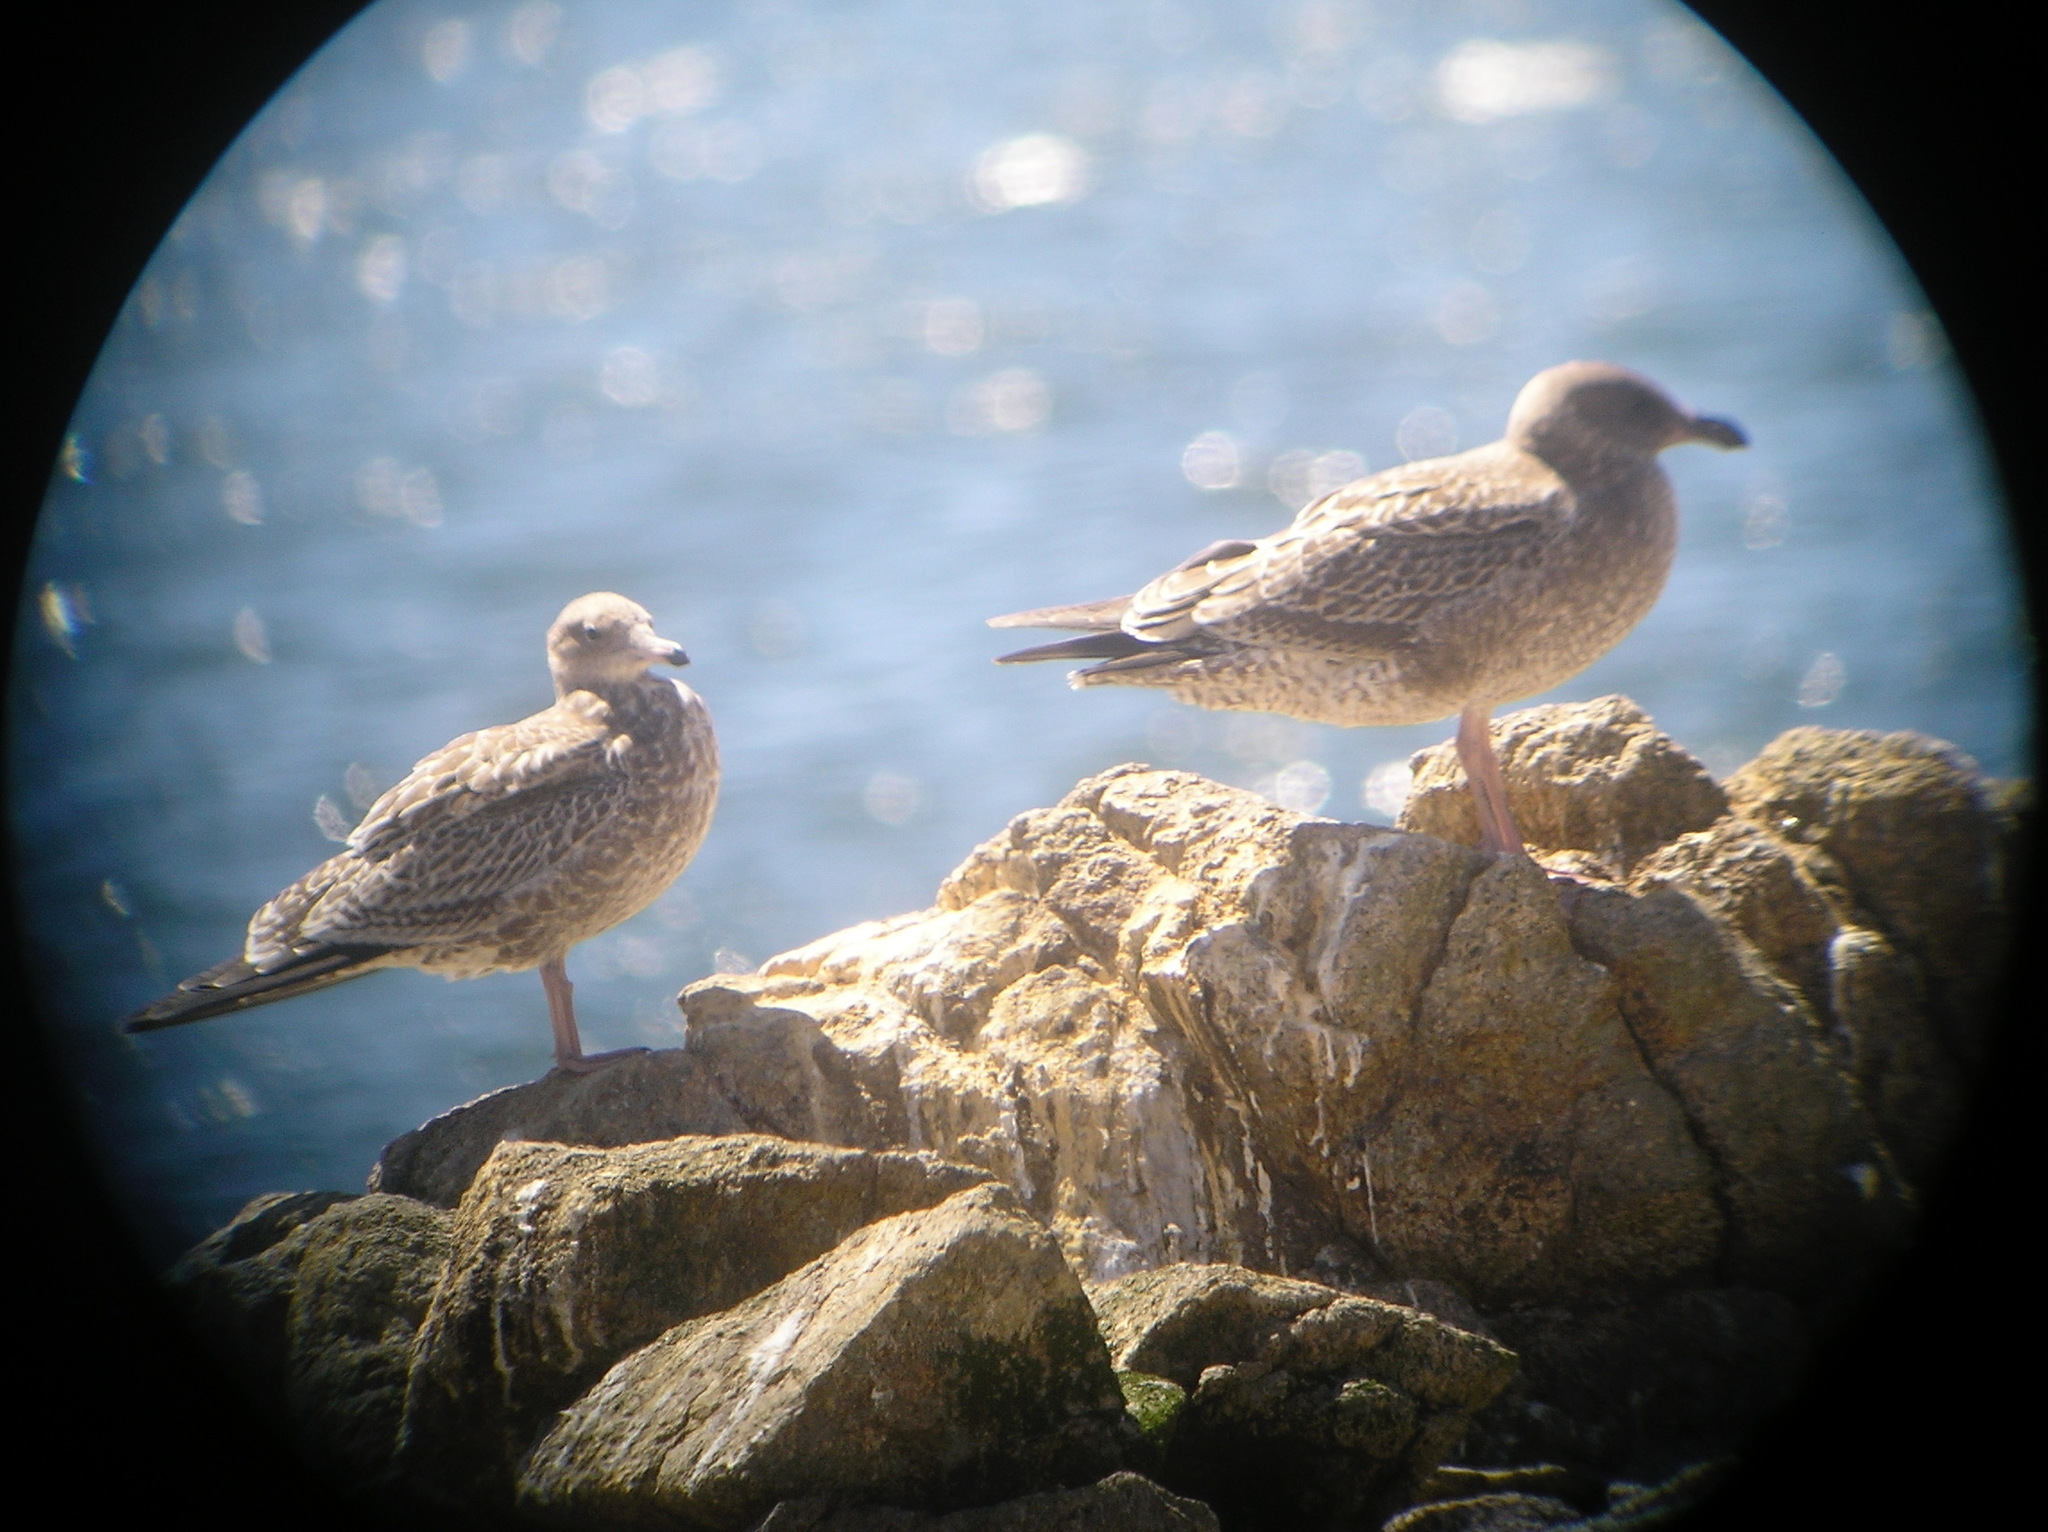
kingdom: Animalia
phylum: Chordata
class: Aves
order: Charadriiformes
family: Laridae
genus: Larus
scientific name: Larus californicus
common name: California gull
